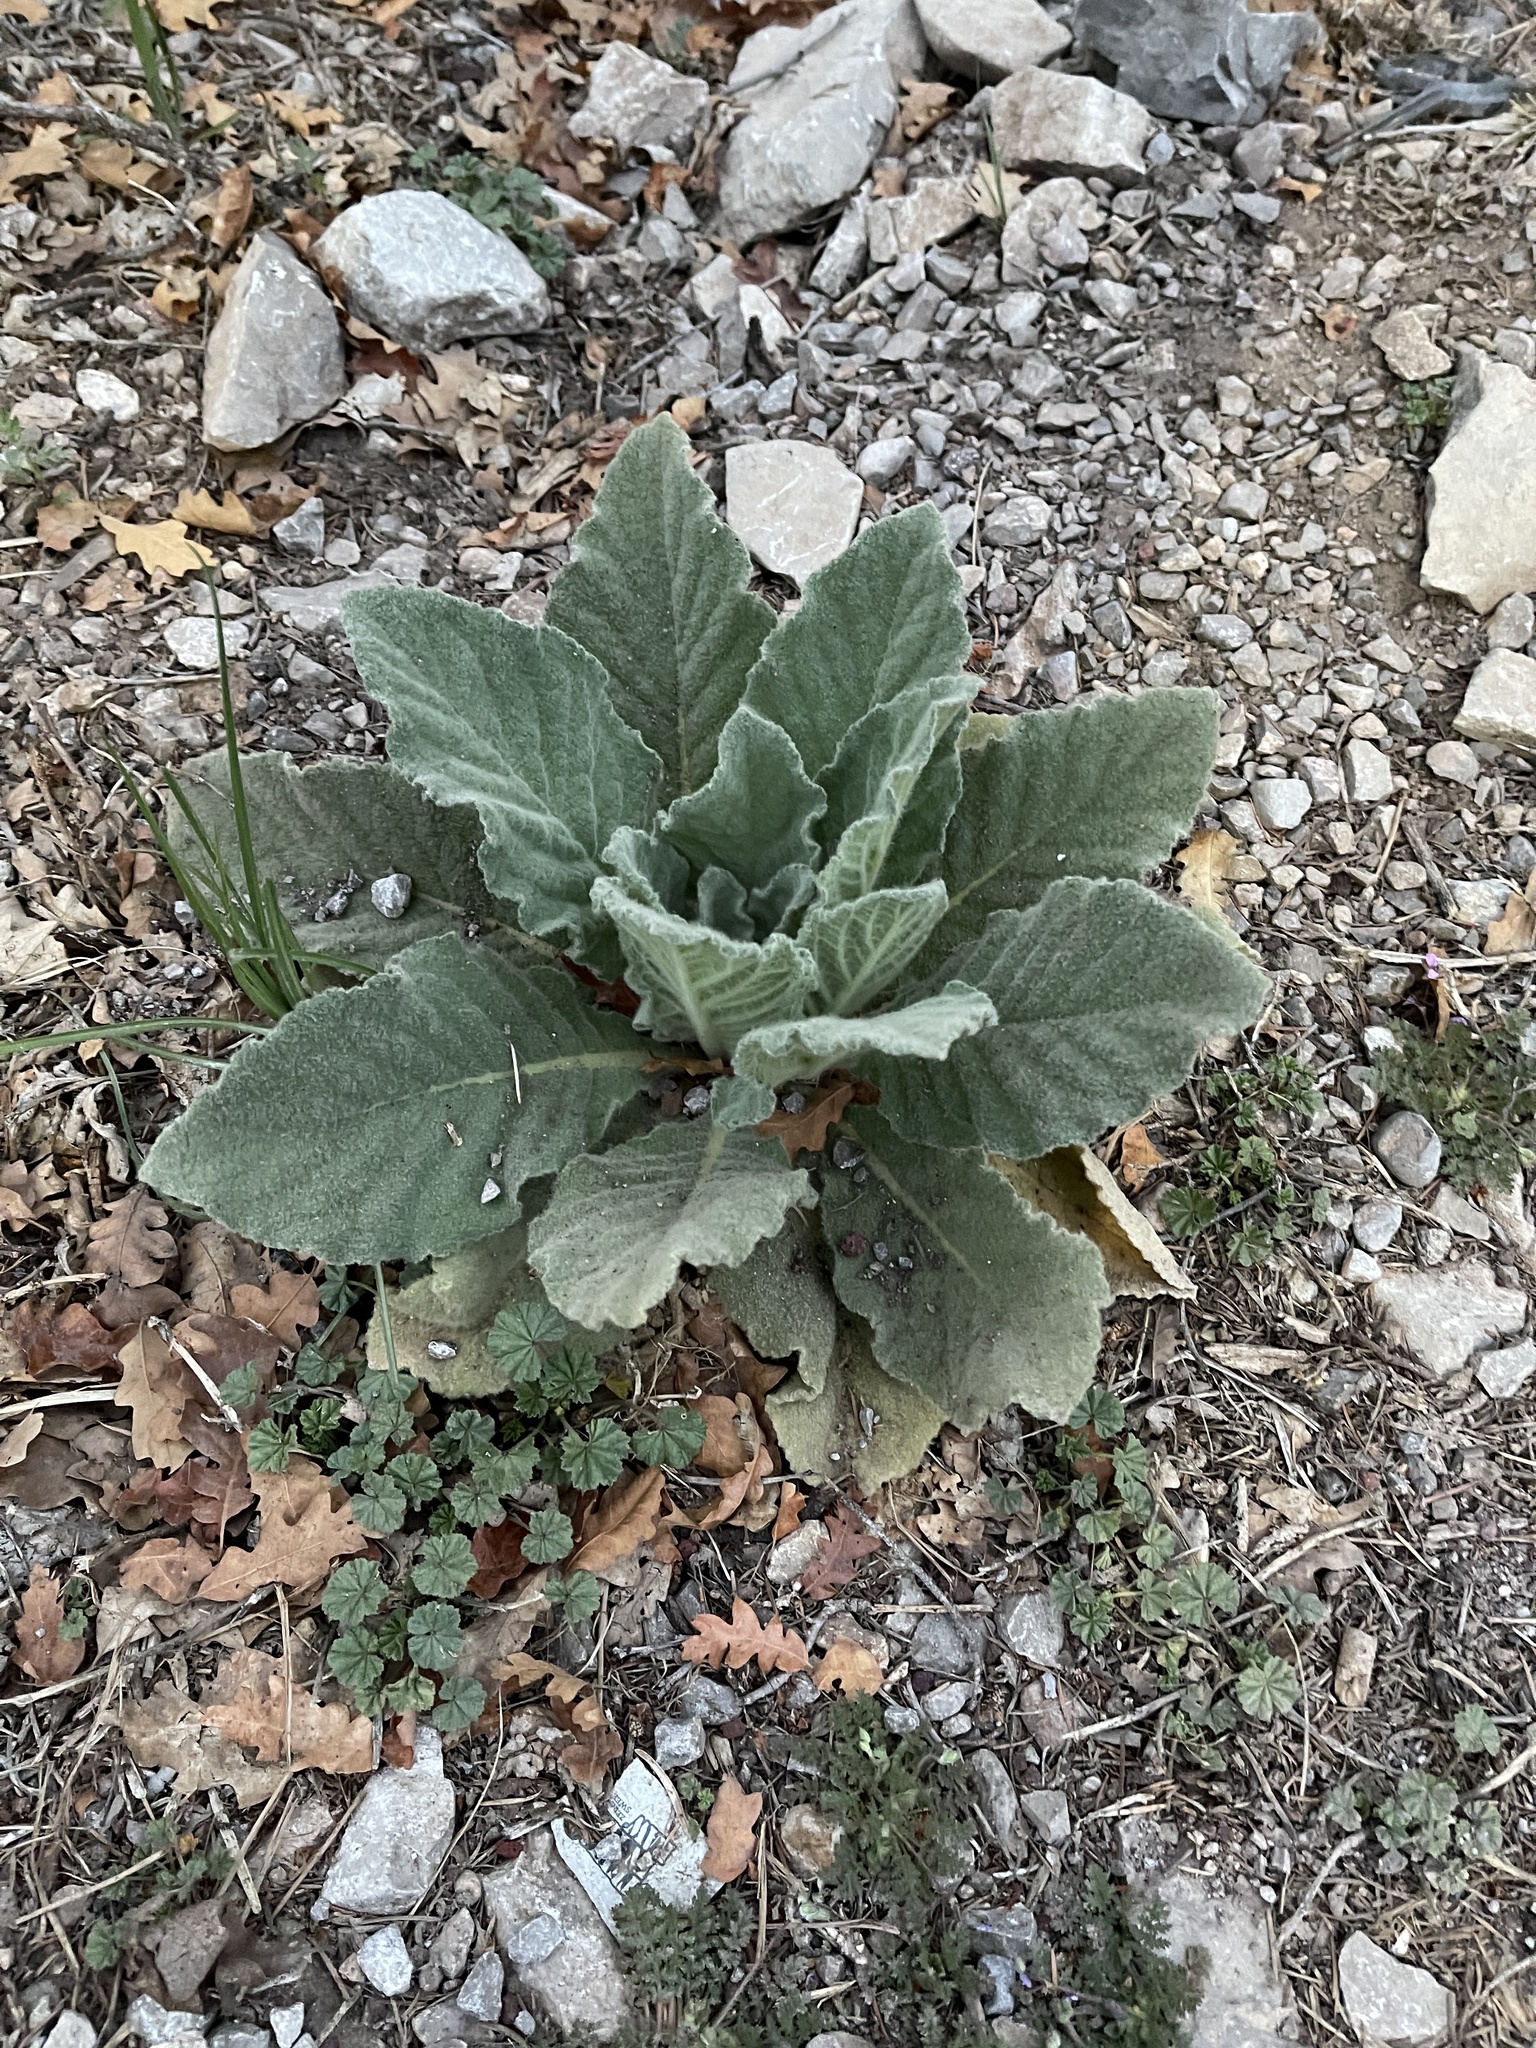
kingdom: Plantae
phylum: Tracheophyta
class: Magnoliopsida
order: Lamiales
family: Scrophulariaceae
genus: Verbascum
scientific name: Verbascum thapsus
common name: Common mullein
